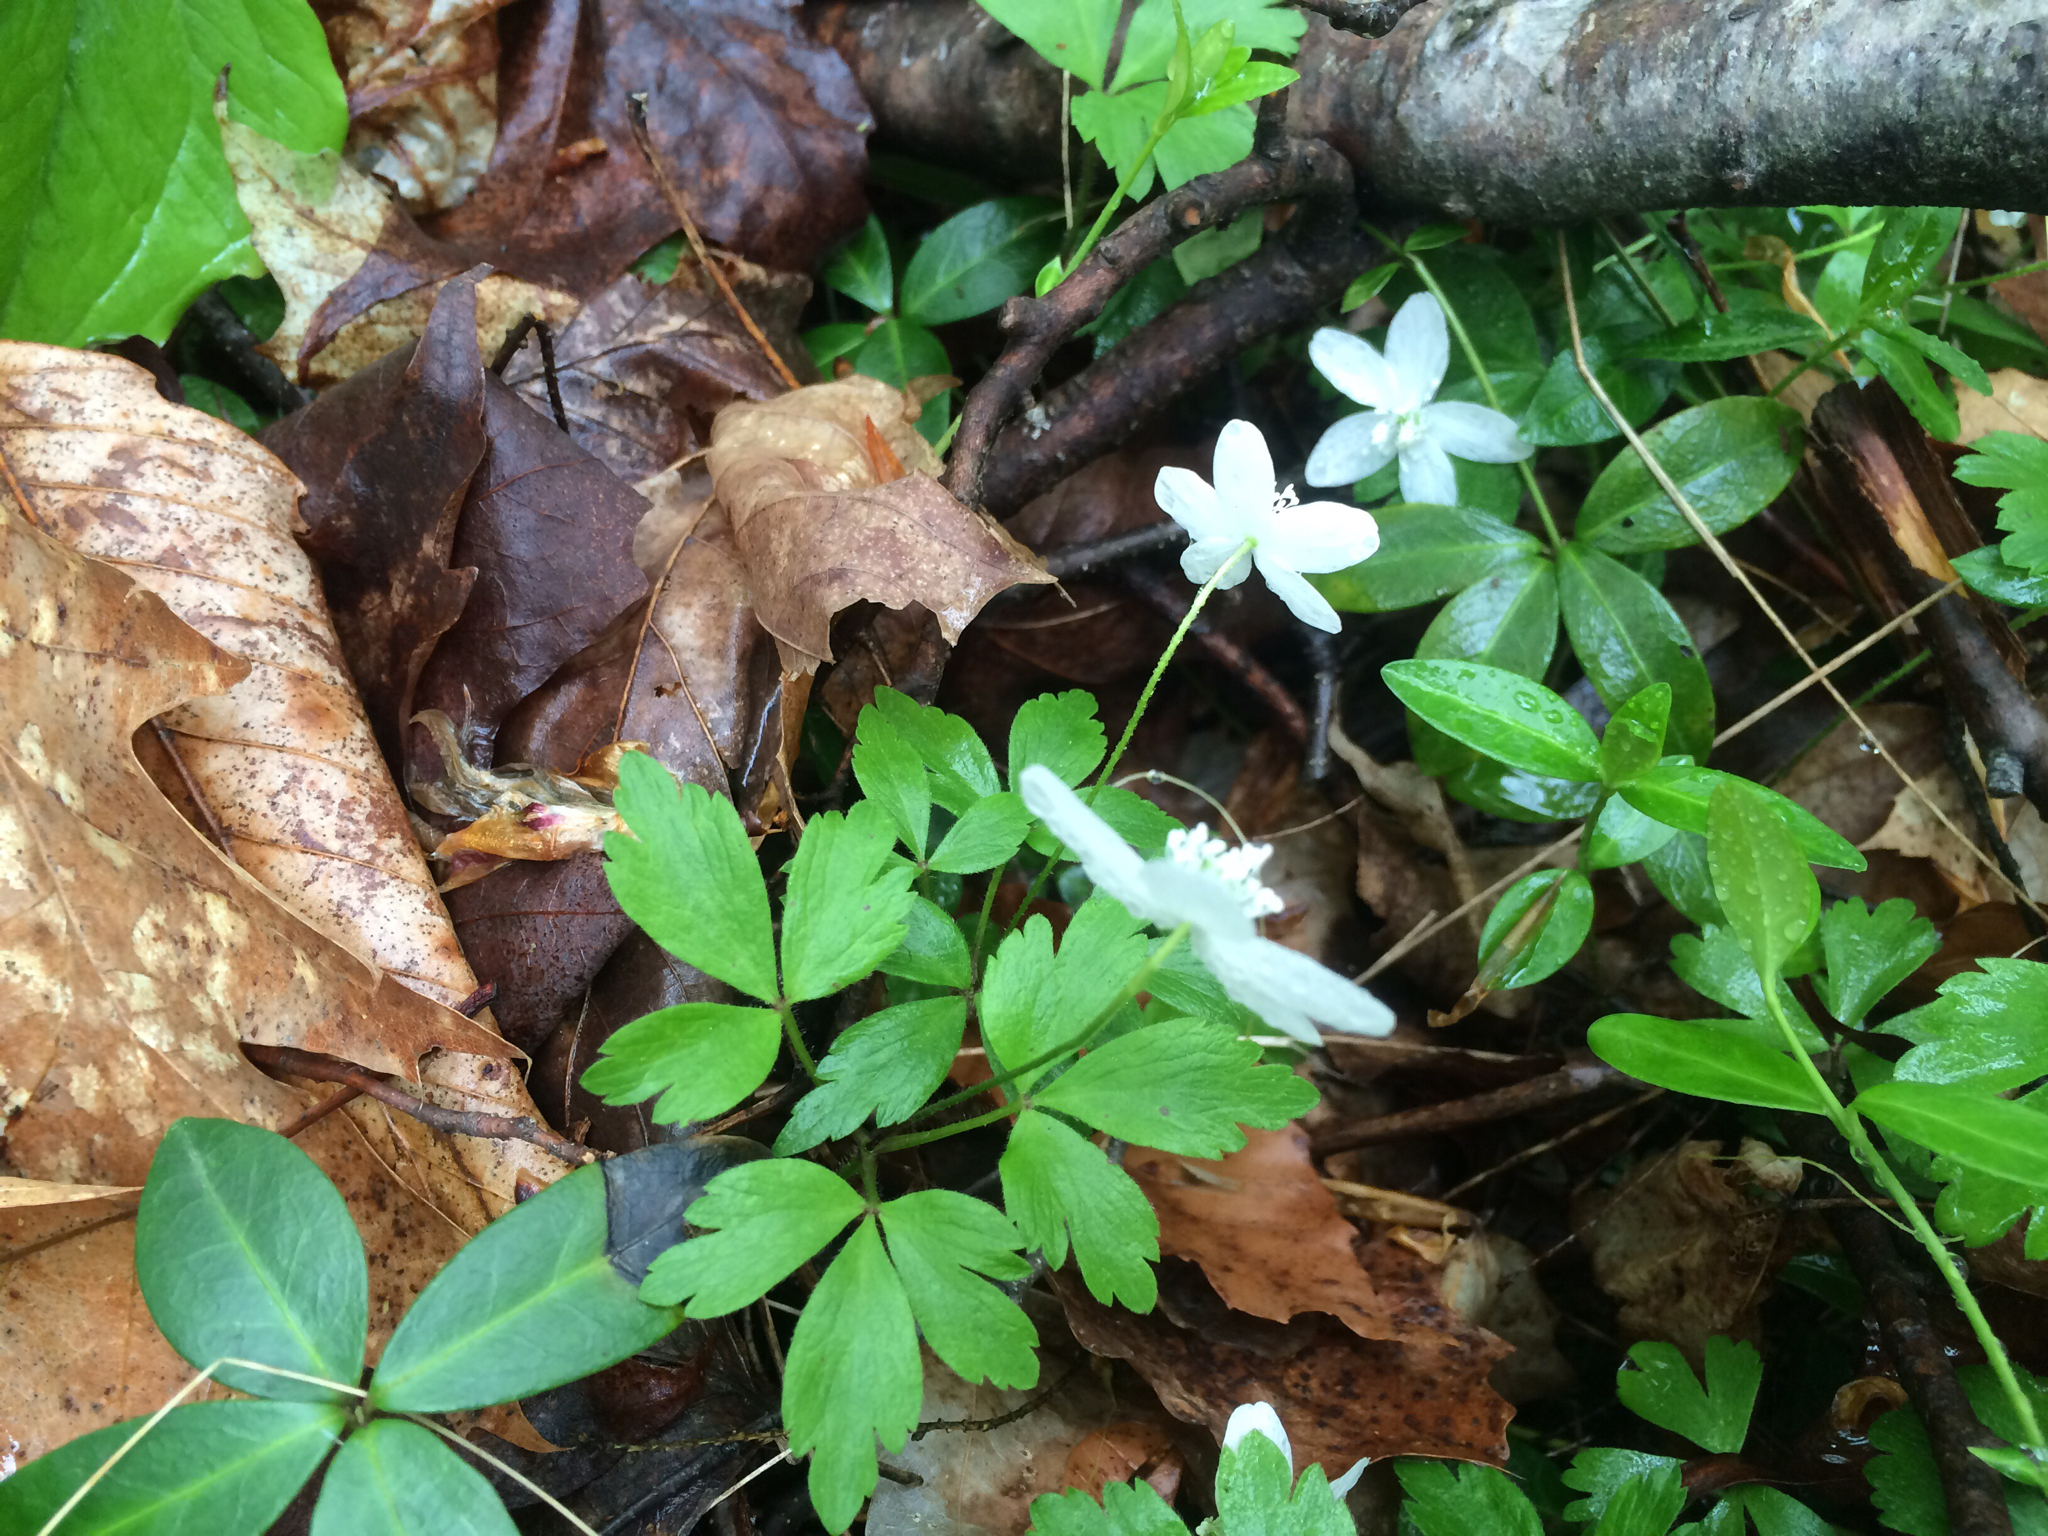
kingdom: Plantae
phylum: Tracheophyta
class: Magnoliopsida
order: Ranunculales
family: Ranunculaceae
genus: Anemone
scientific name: Anemone quinquefolia
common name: Wood anemone
